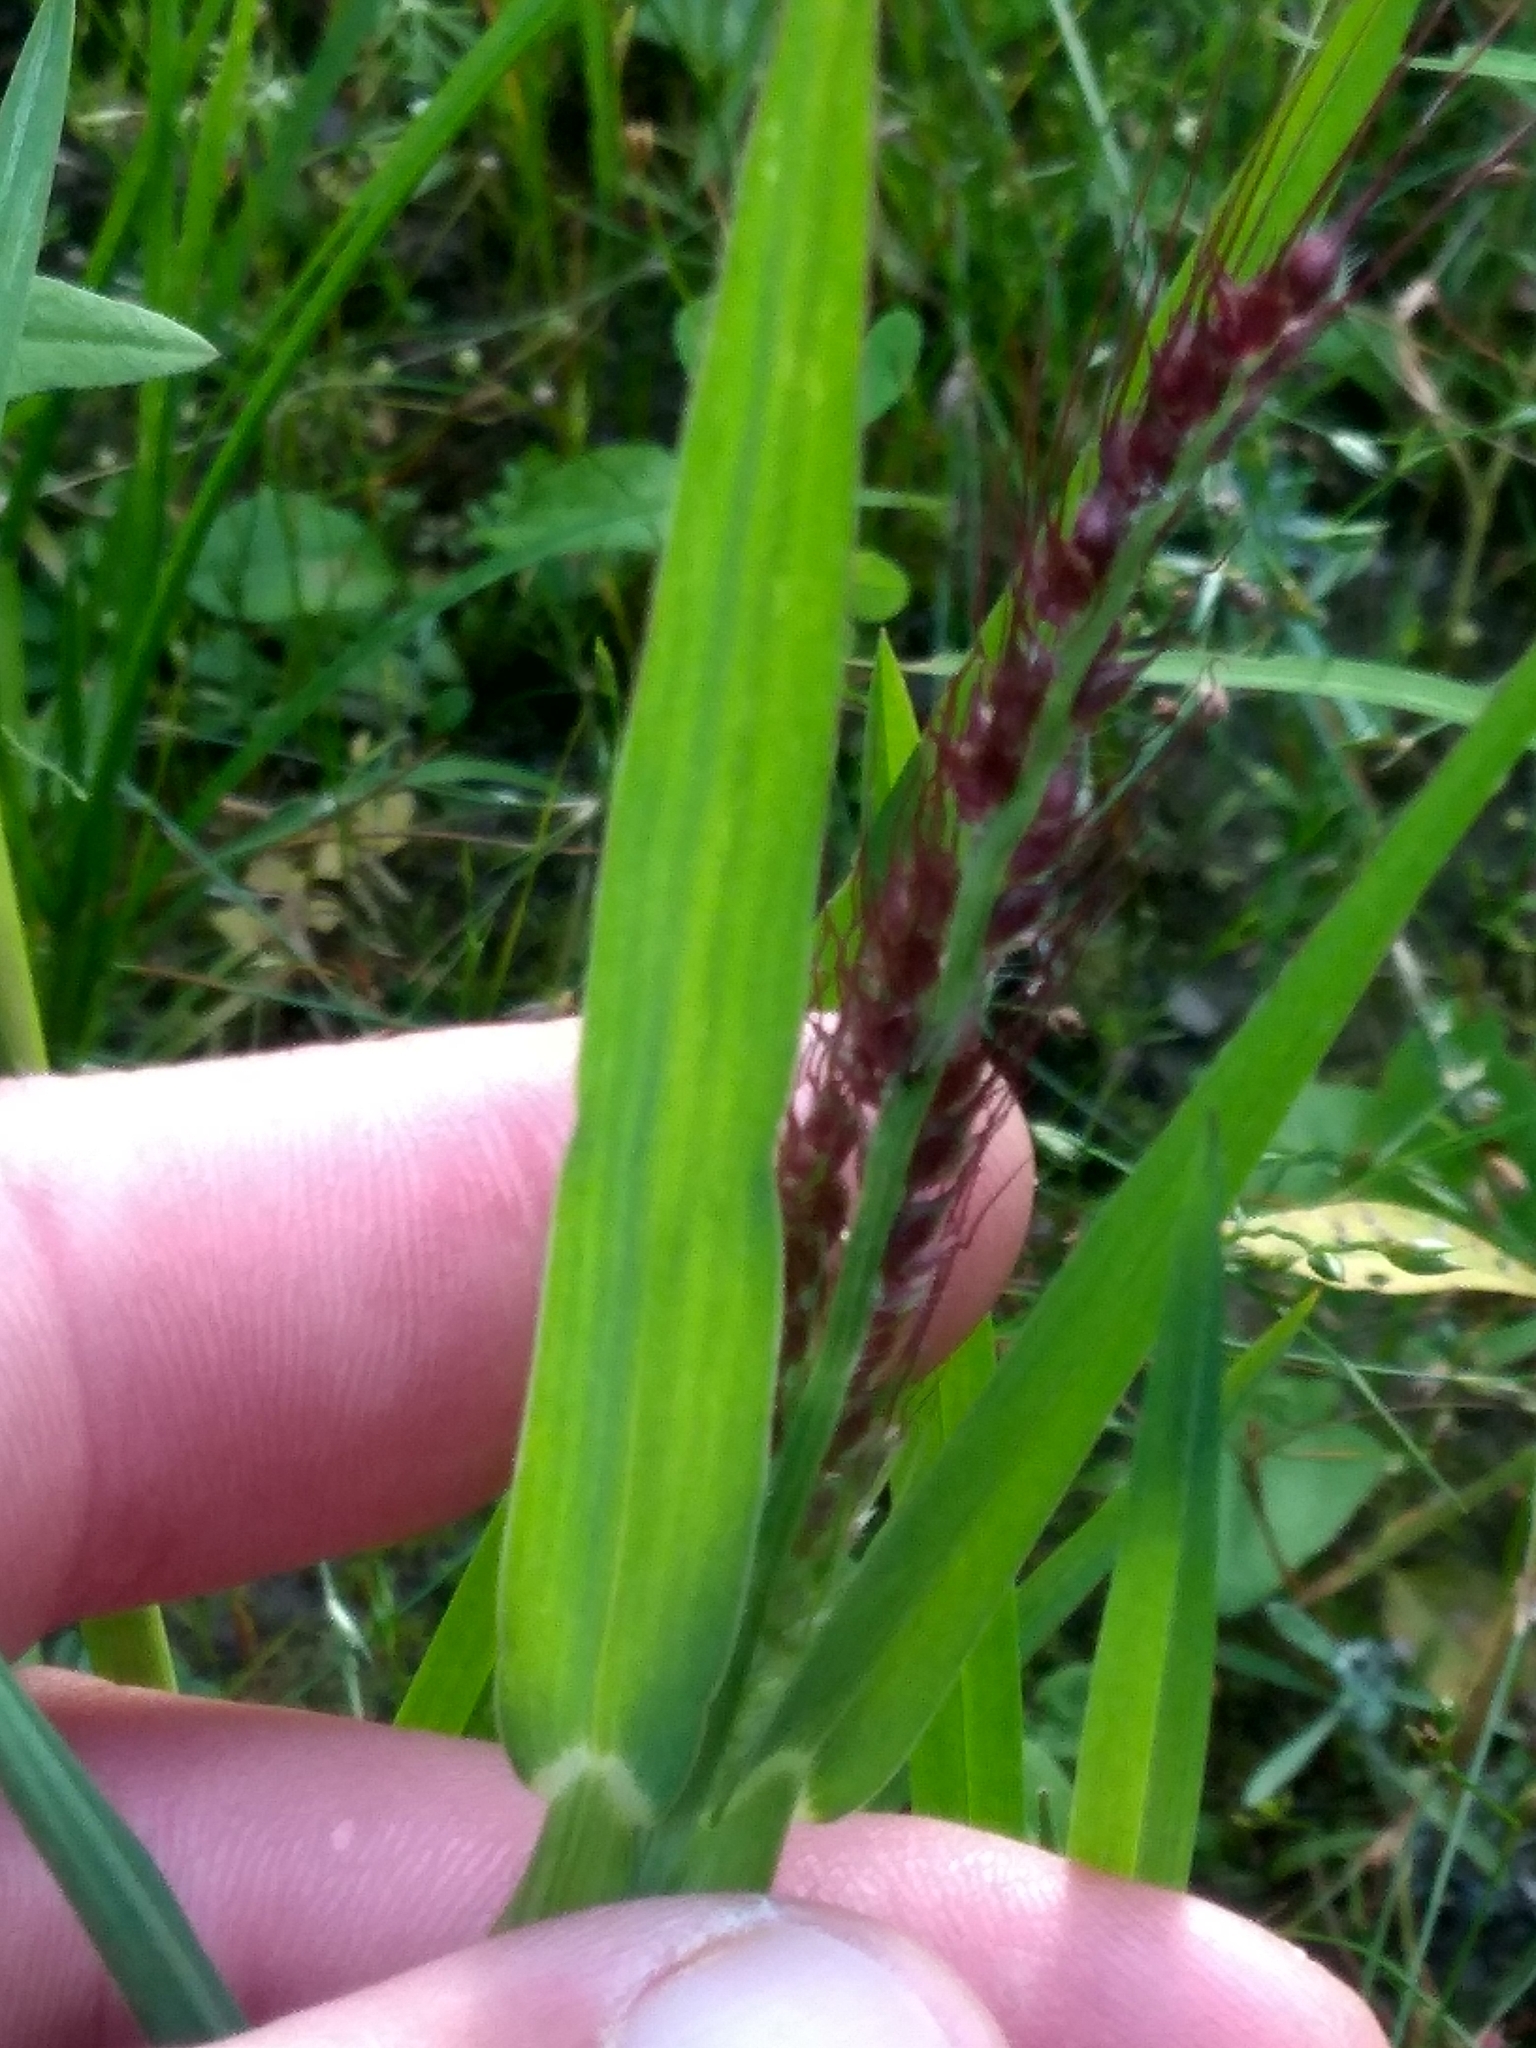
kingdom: Plantae
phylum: Tracheophyta
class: Liliopsida
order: Poales
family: Poaceae
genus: Echinochloa
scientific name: Echinochloa crus-galli
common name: Cockspur
